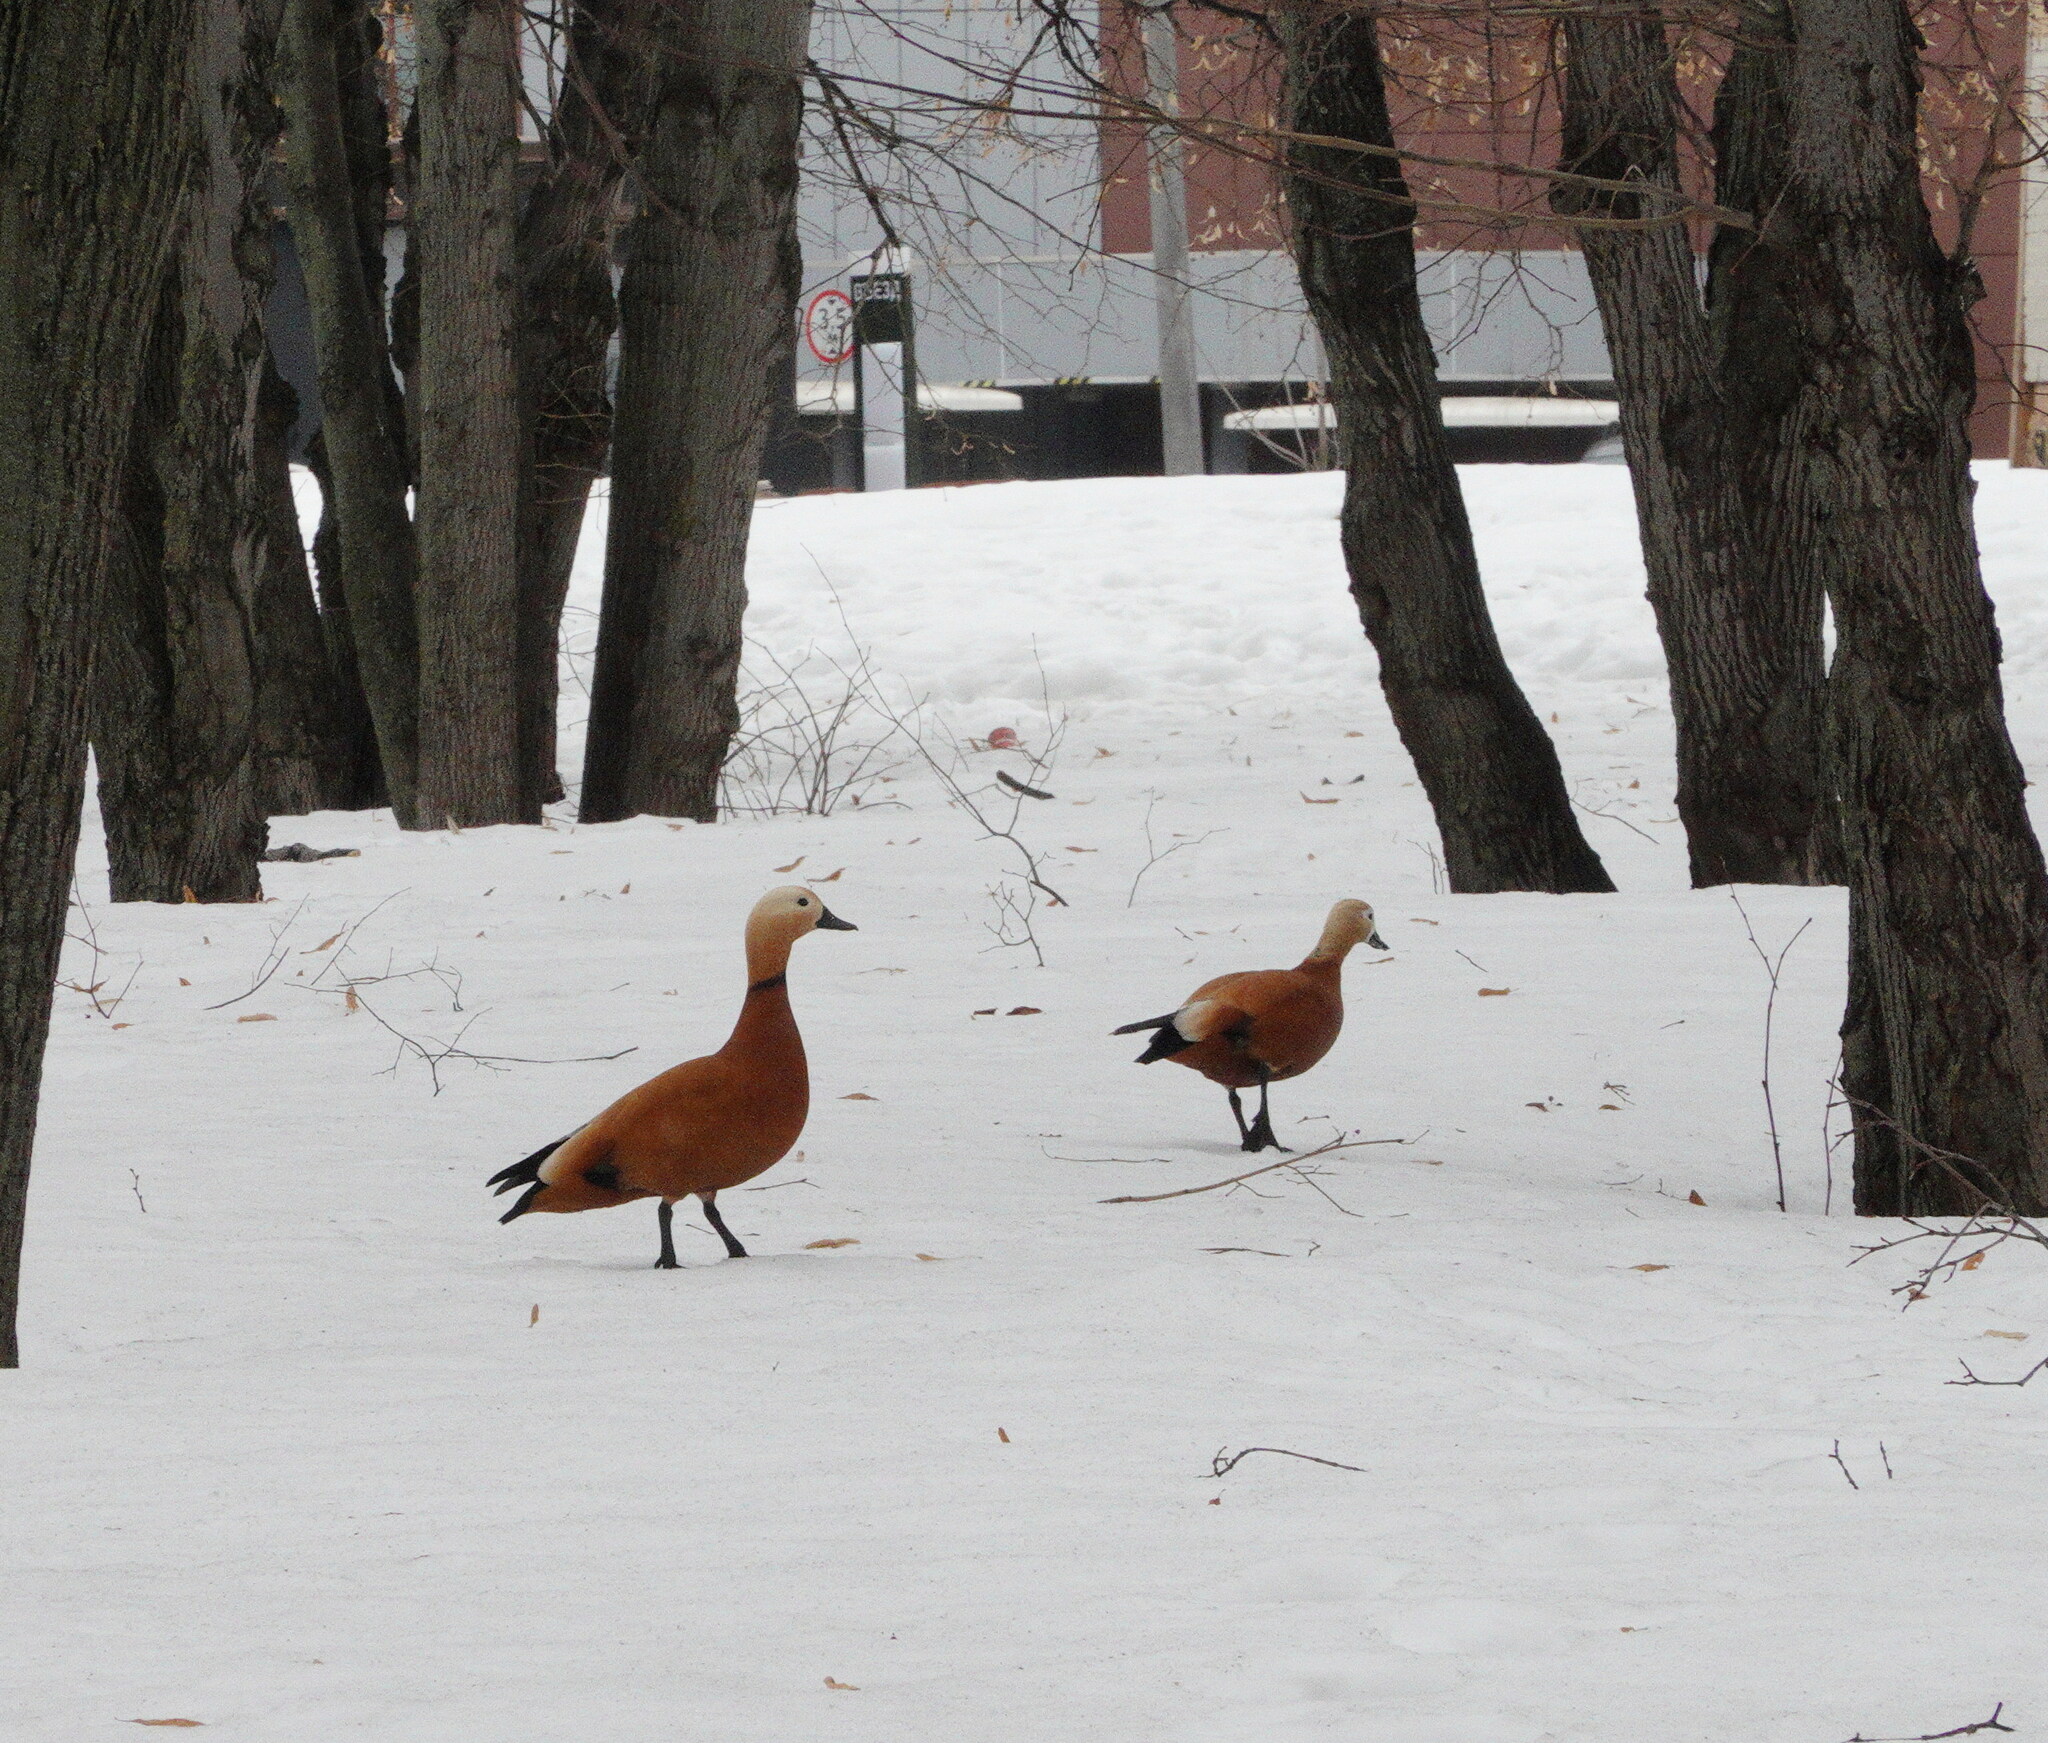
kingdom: Animalia
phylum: Chordata
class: Aves
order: Anseriformes
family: Anatidae
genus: Tadorna
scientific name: Tadorna ferruginea
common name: Ruddy shelduck
